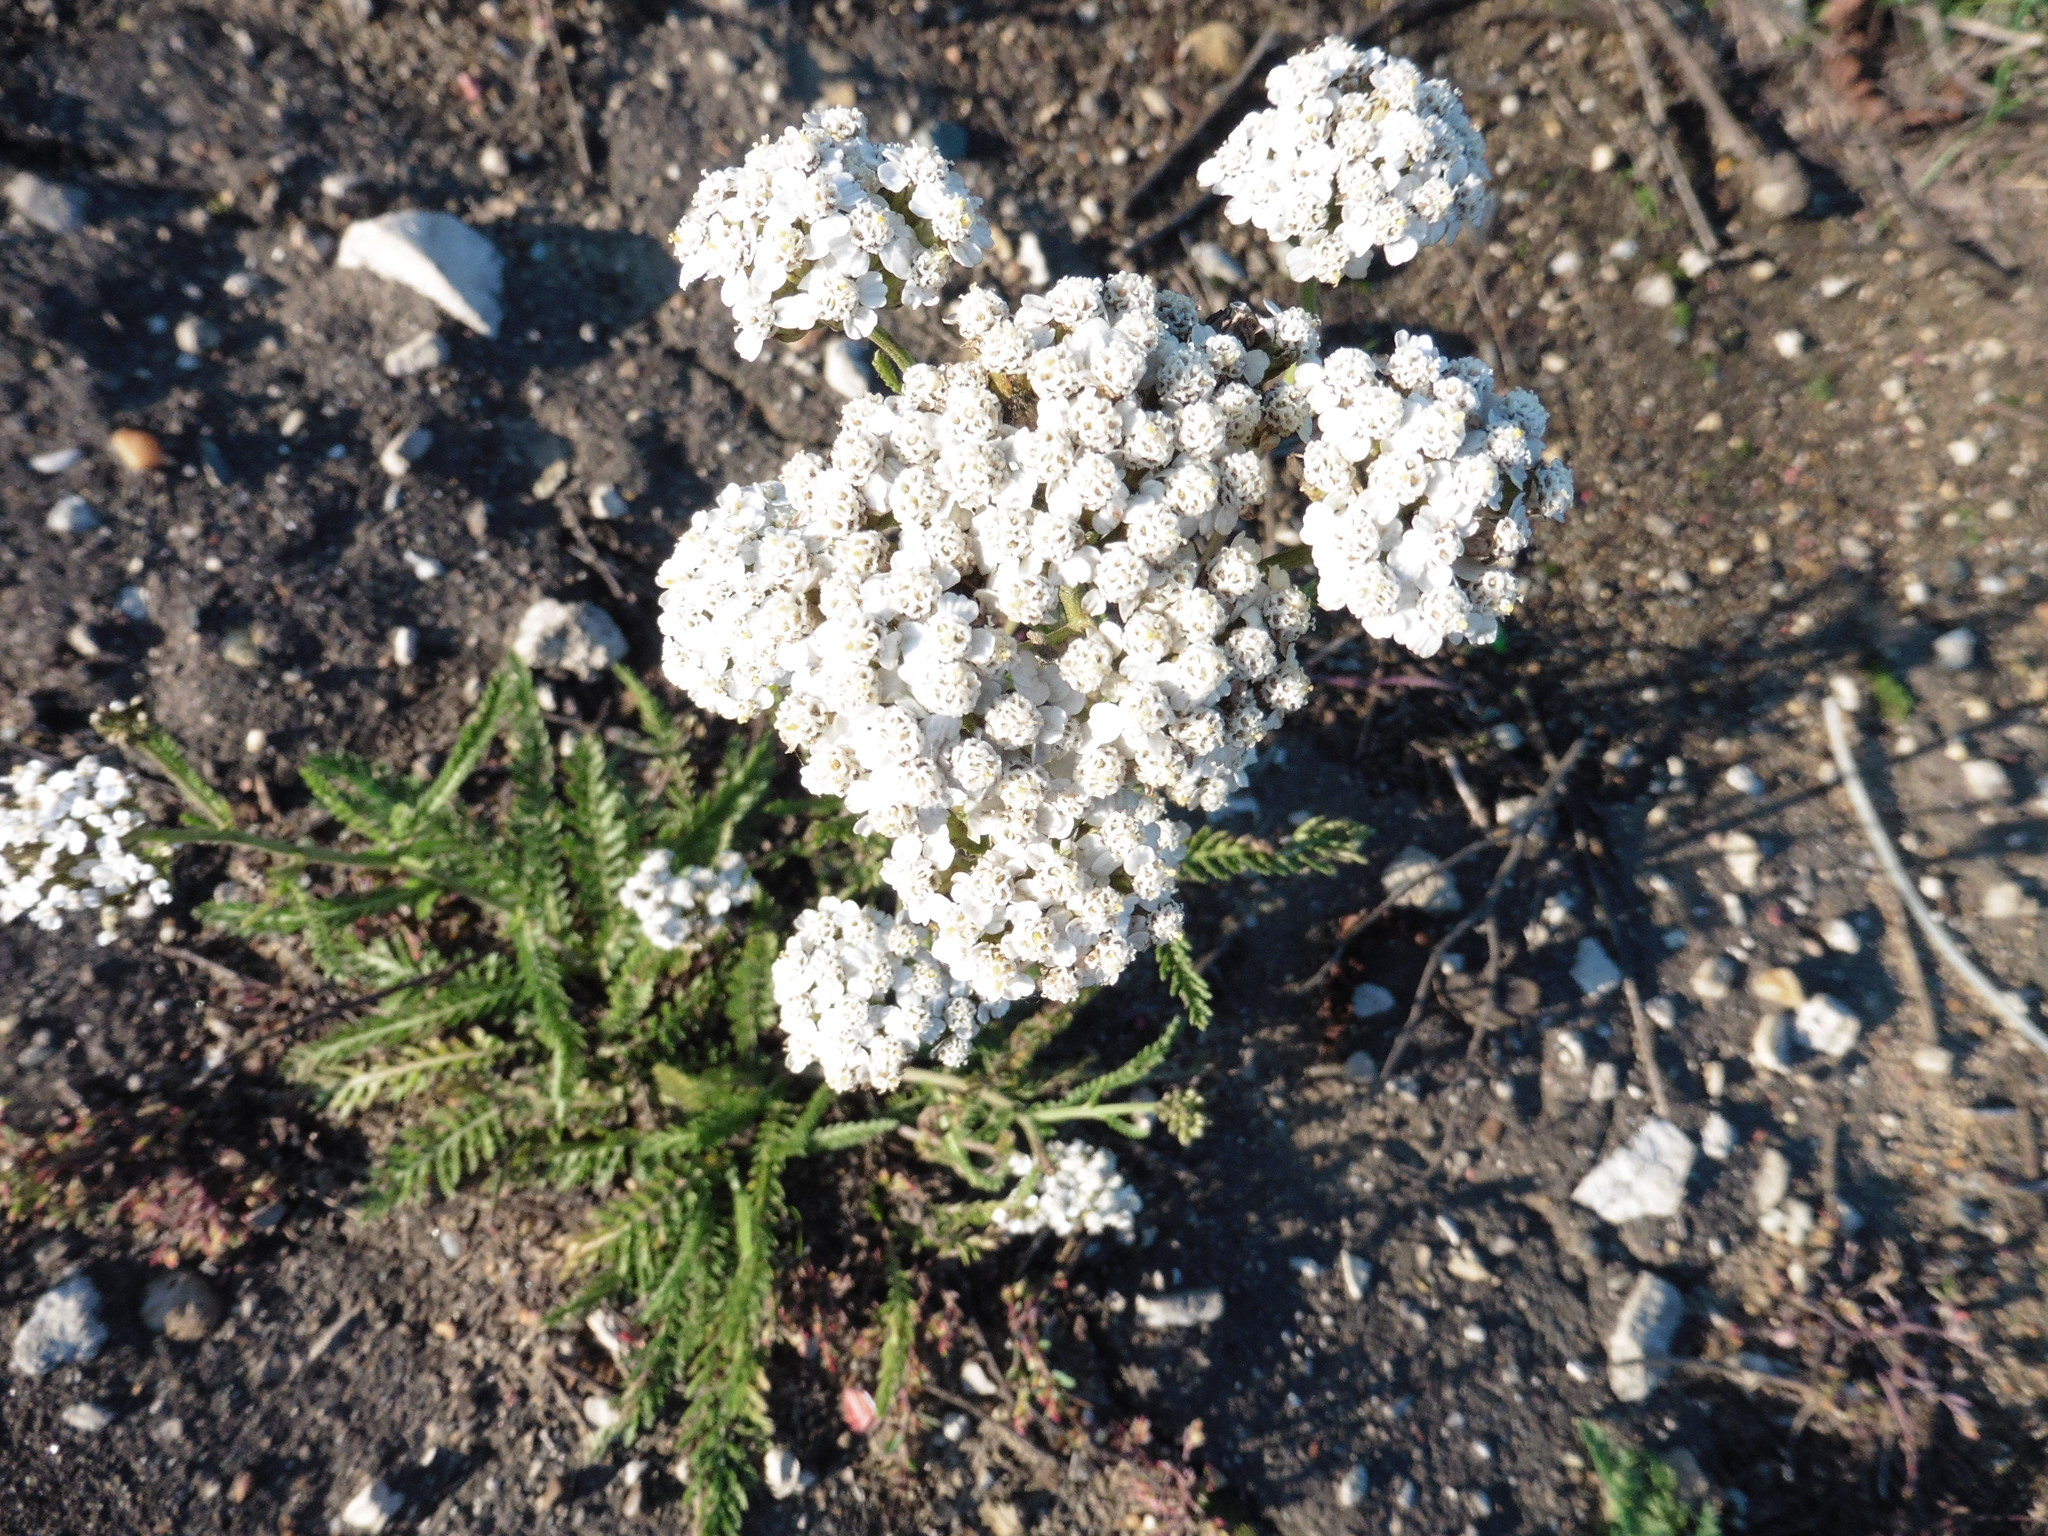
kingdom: Plantae
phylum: Tracheophyta
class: Magnoliopsida
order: Asterales
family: Asteraceae
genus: Achillea
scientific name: Achillea millefolium
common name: Yarrow
